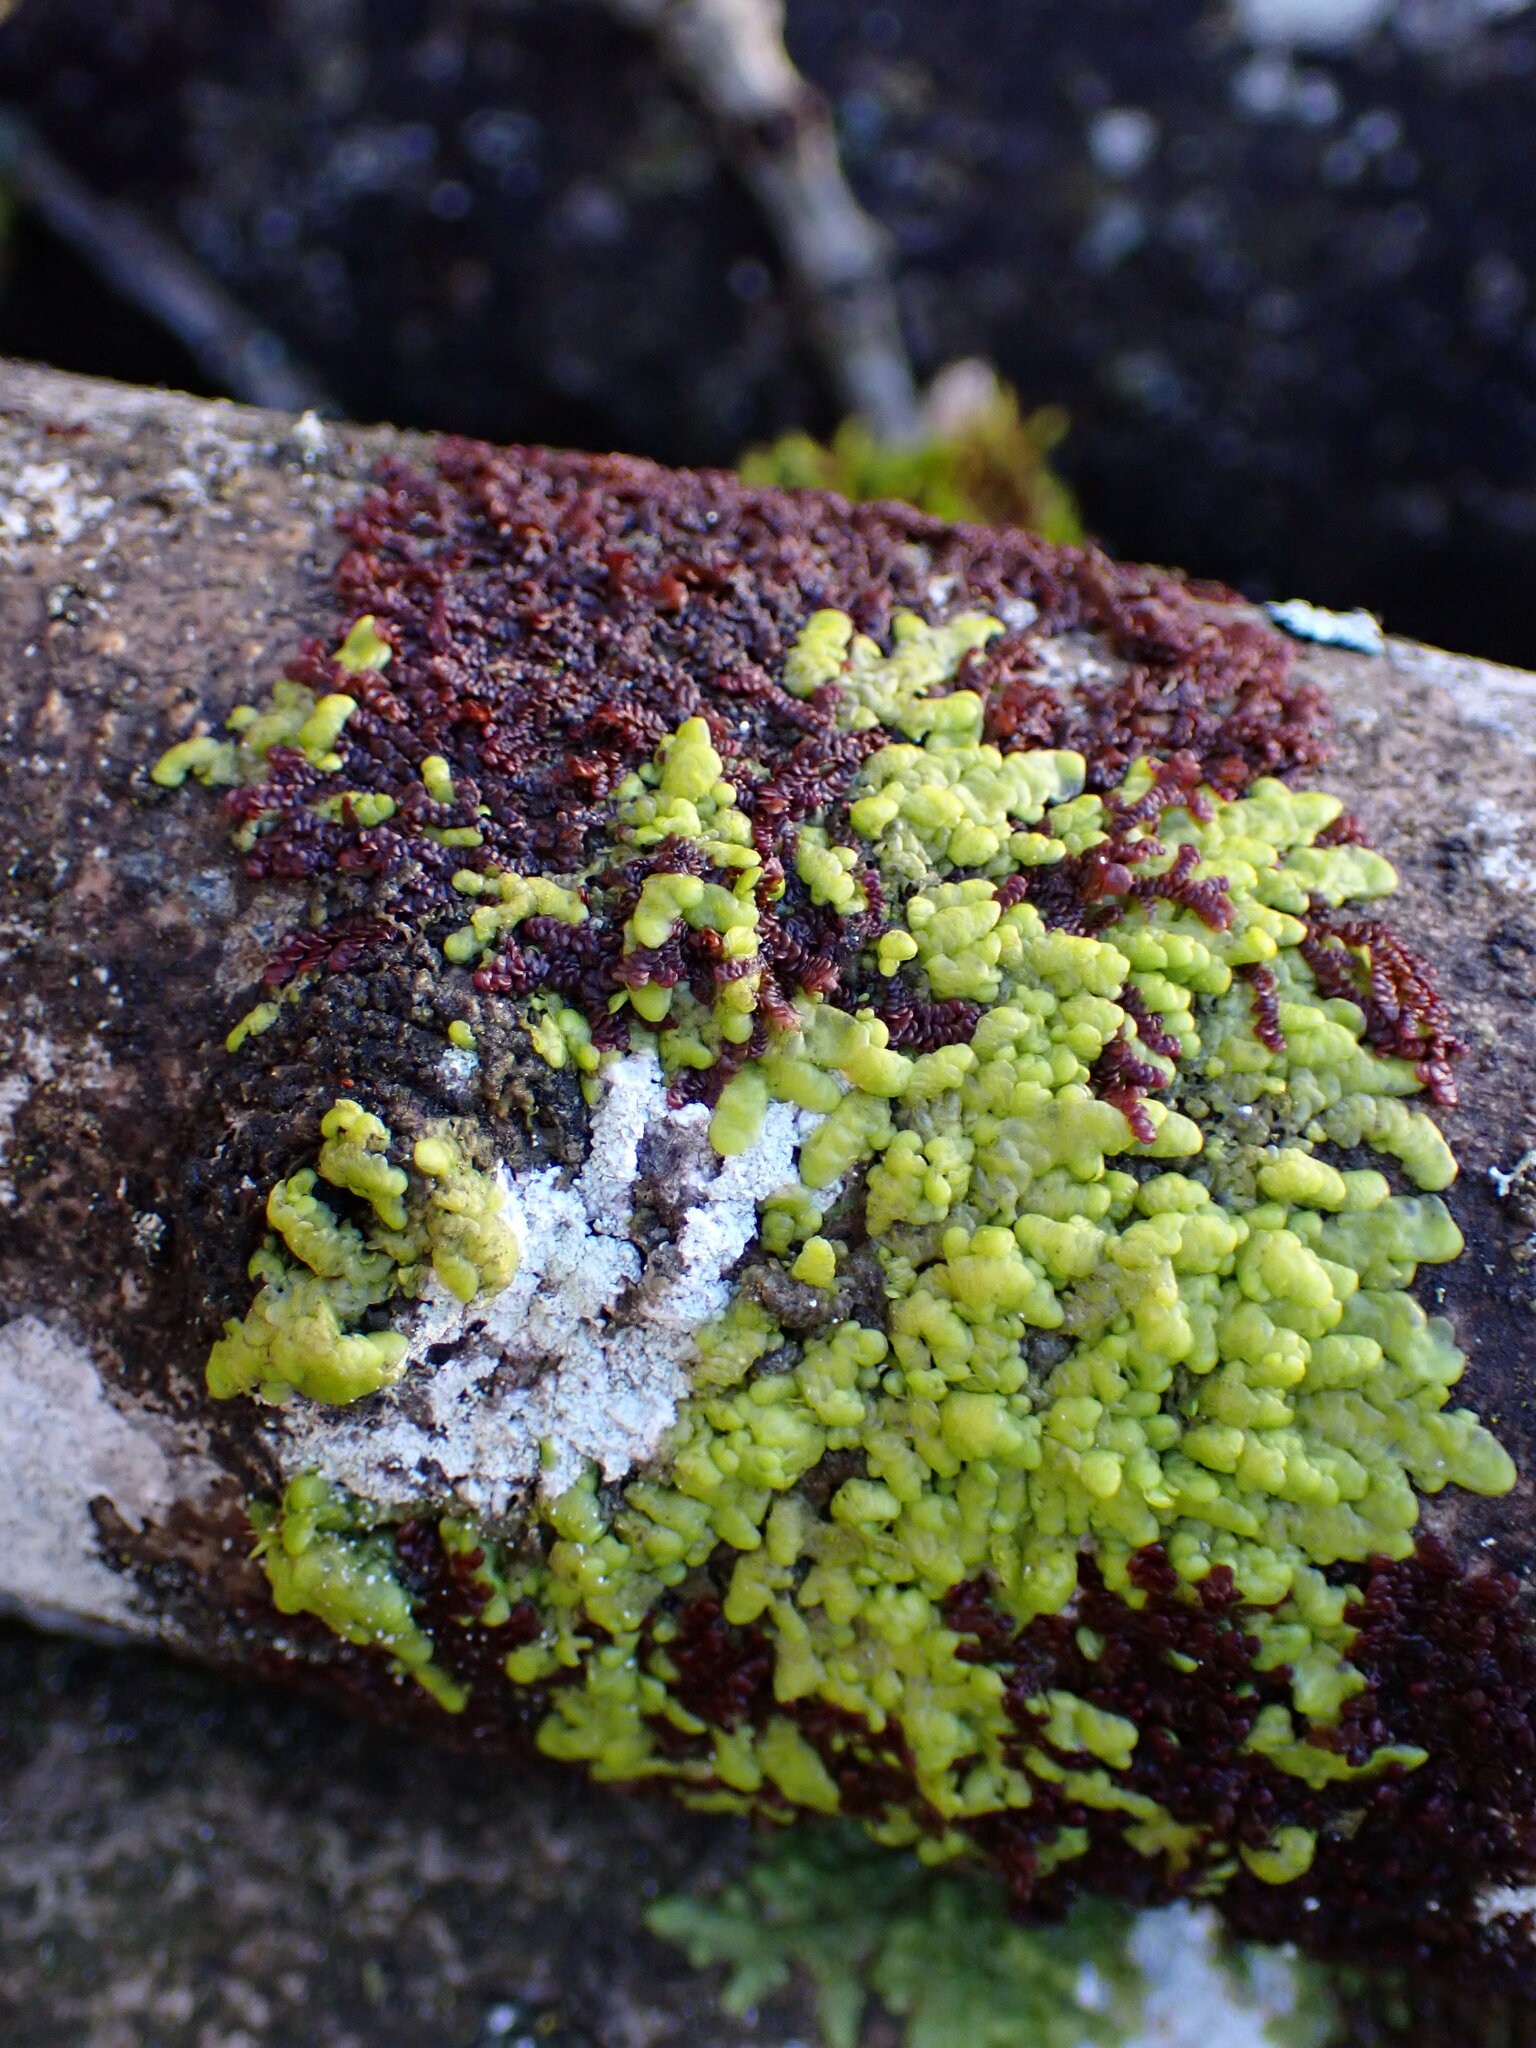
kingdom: Plantae
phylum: Marchantiophyta
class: Jungermanniopsida
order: Porellales
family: Frullaniaceae
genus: Frullania
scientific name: Frullania dilatata
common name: Dilated scalewort
